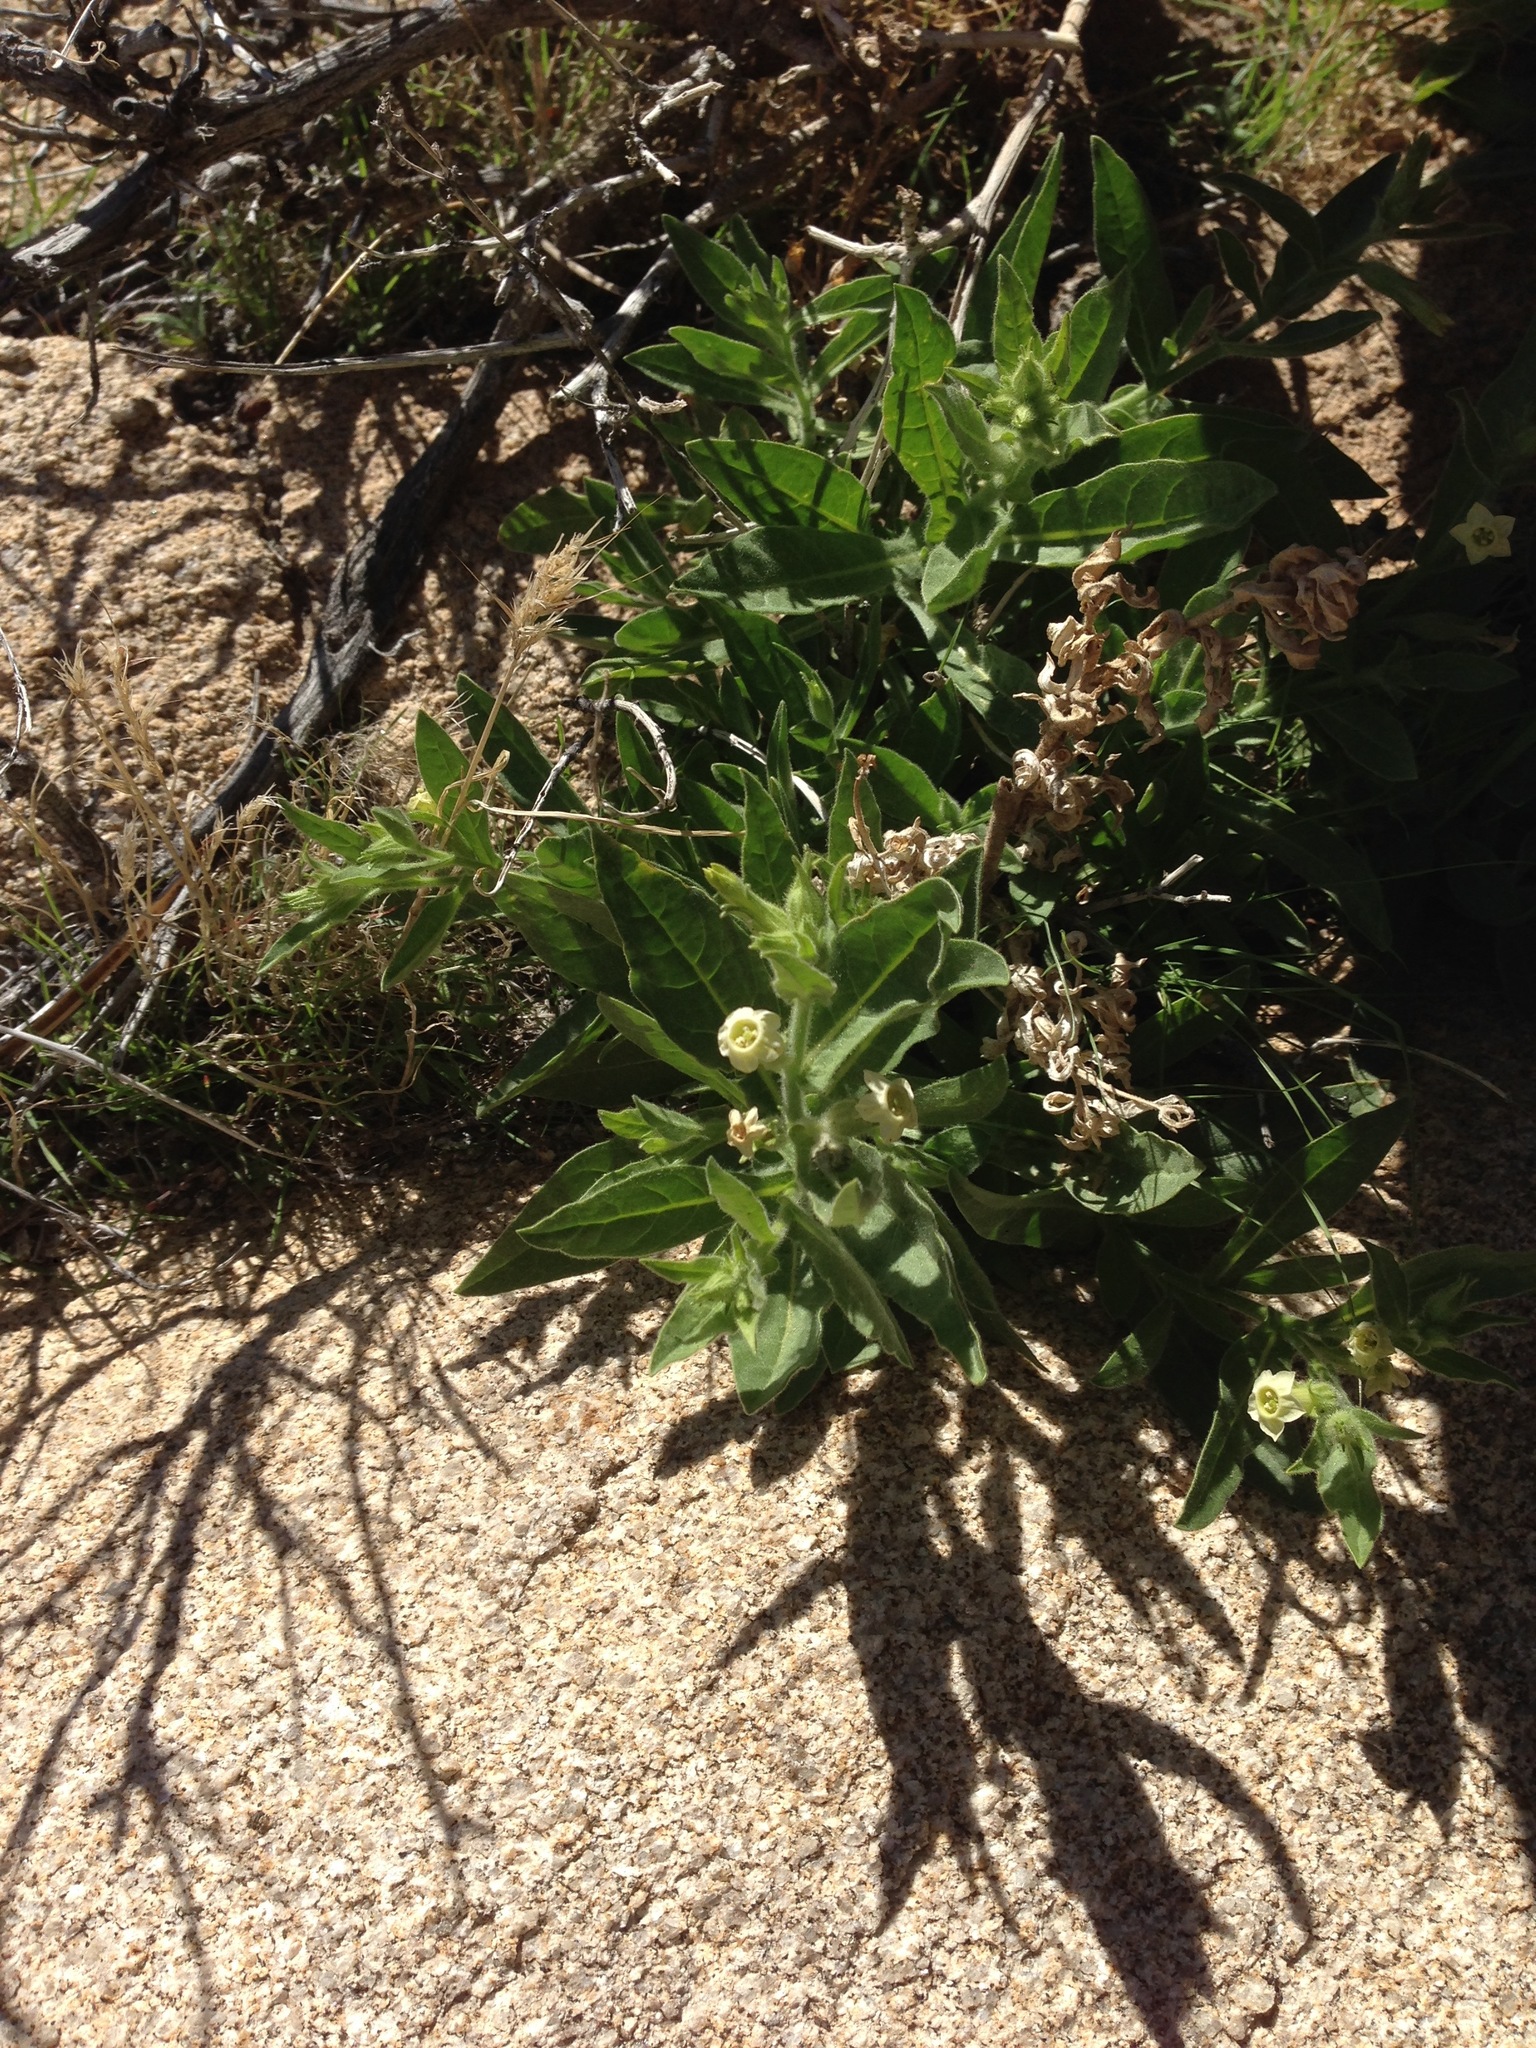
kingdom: Plantae
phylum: Tracheophyta
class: Magnoliopsida
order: Solanales
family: Solanaceae
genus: Nicotiana
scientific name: Nicotiana obtusifolia
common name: Desert tobacco
